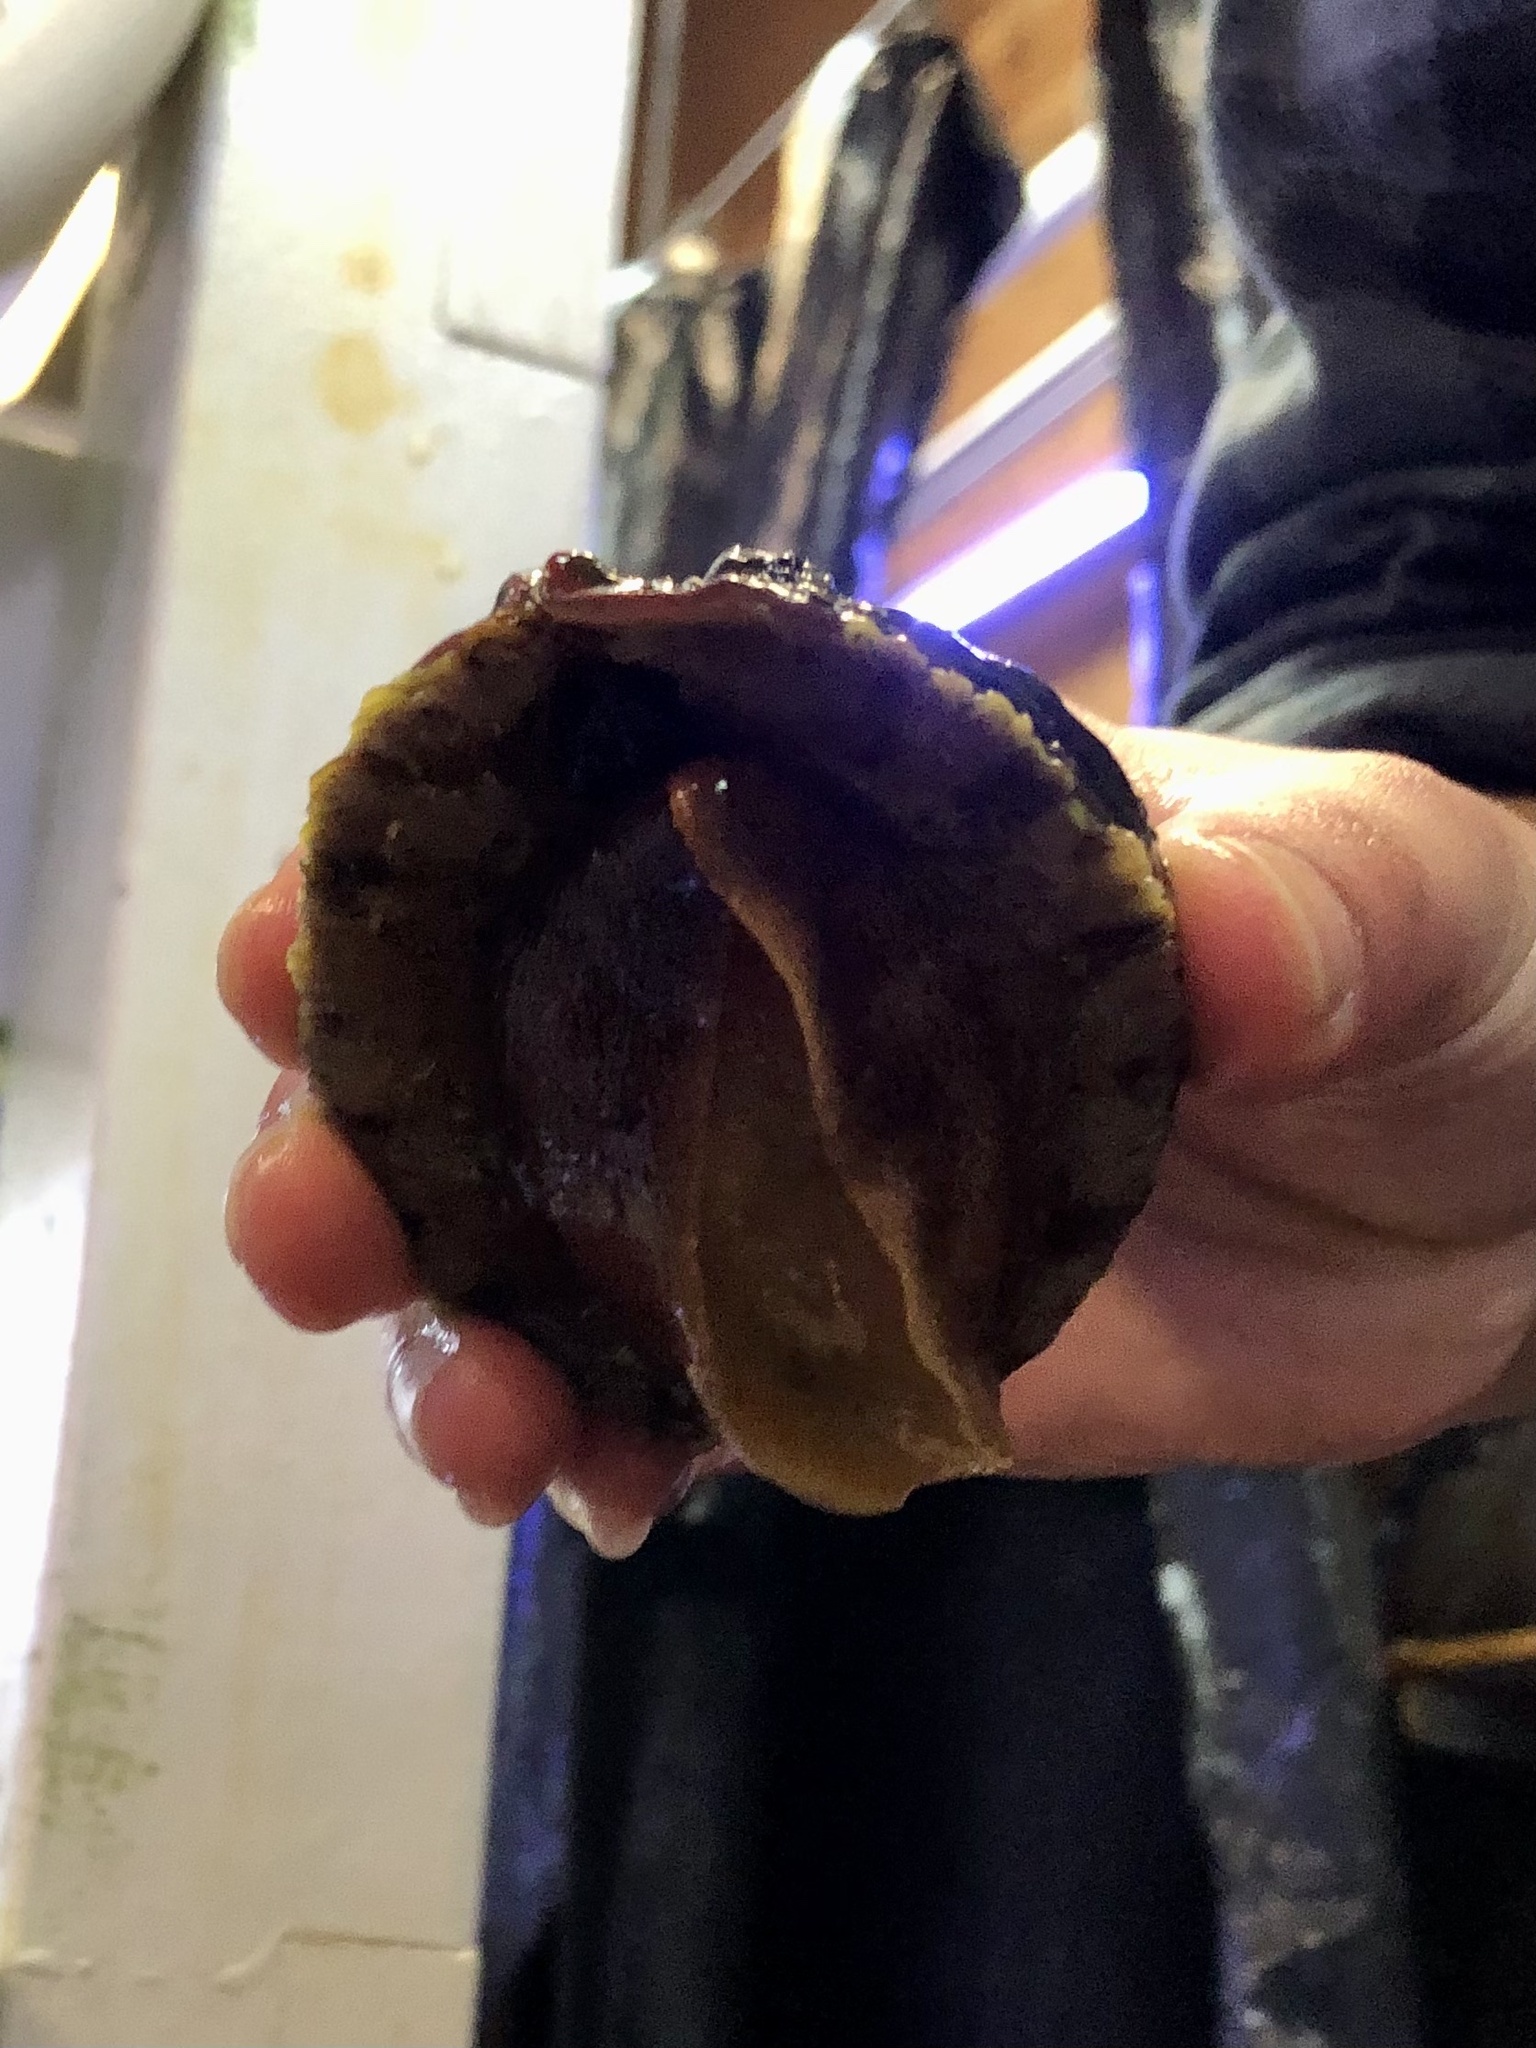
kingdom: Animalia
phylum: Mollusca
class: Gastropoda
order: Lepetellida
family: Haliotidae
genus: Haliotis
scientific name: Haliotis sorenseni
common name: White abalone
